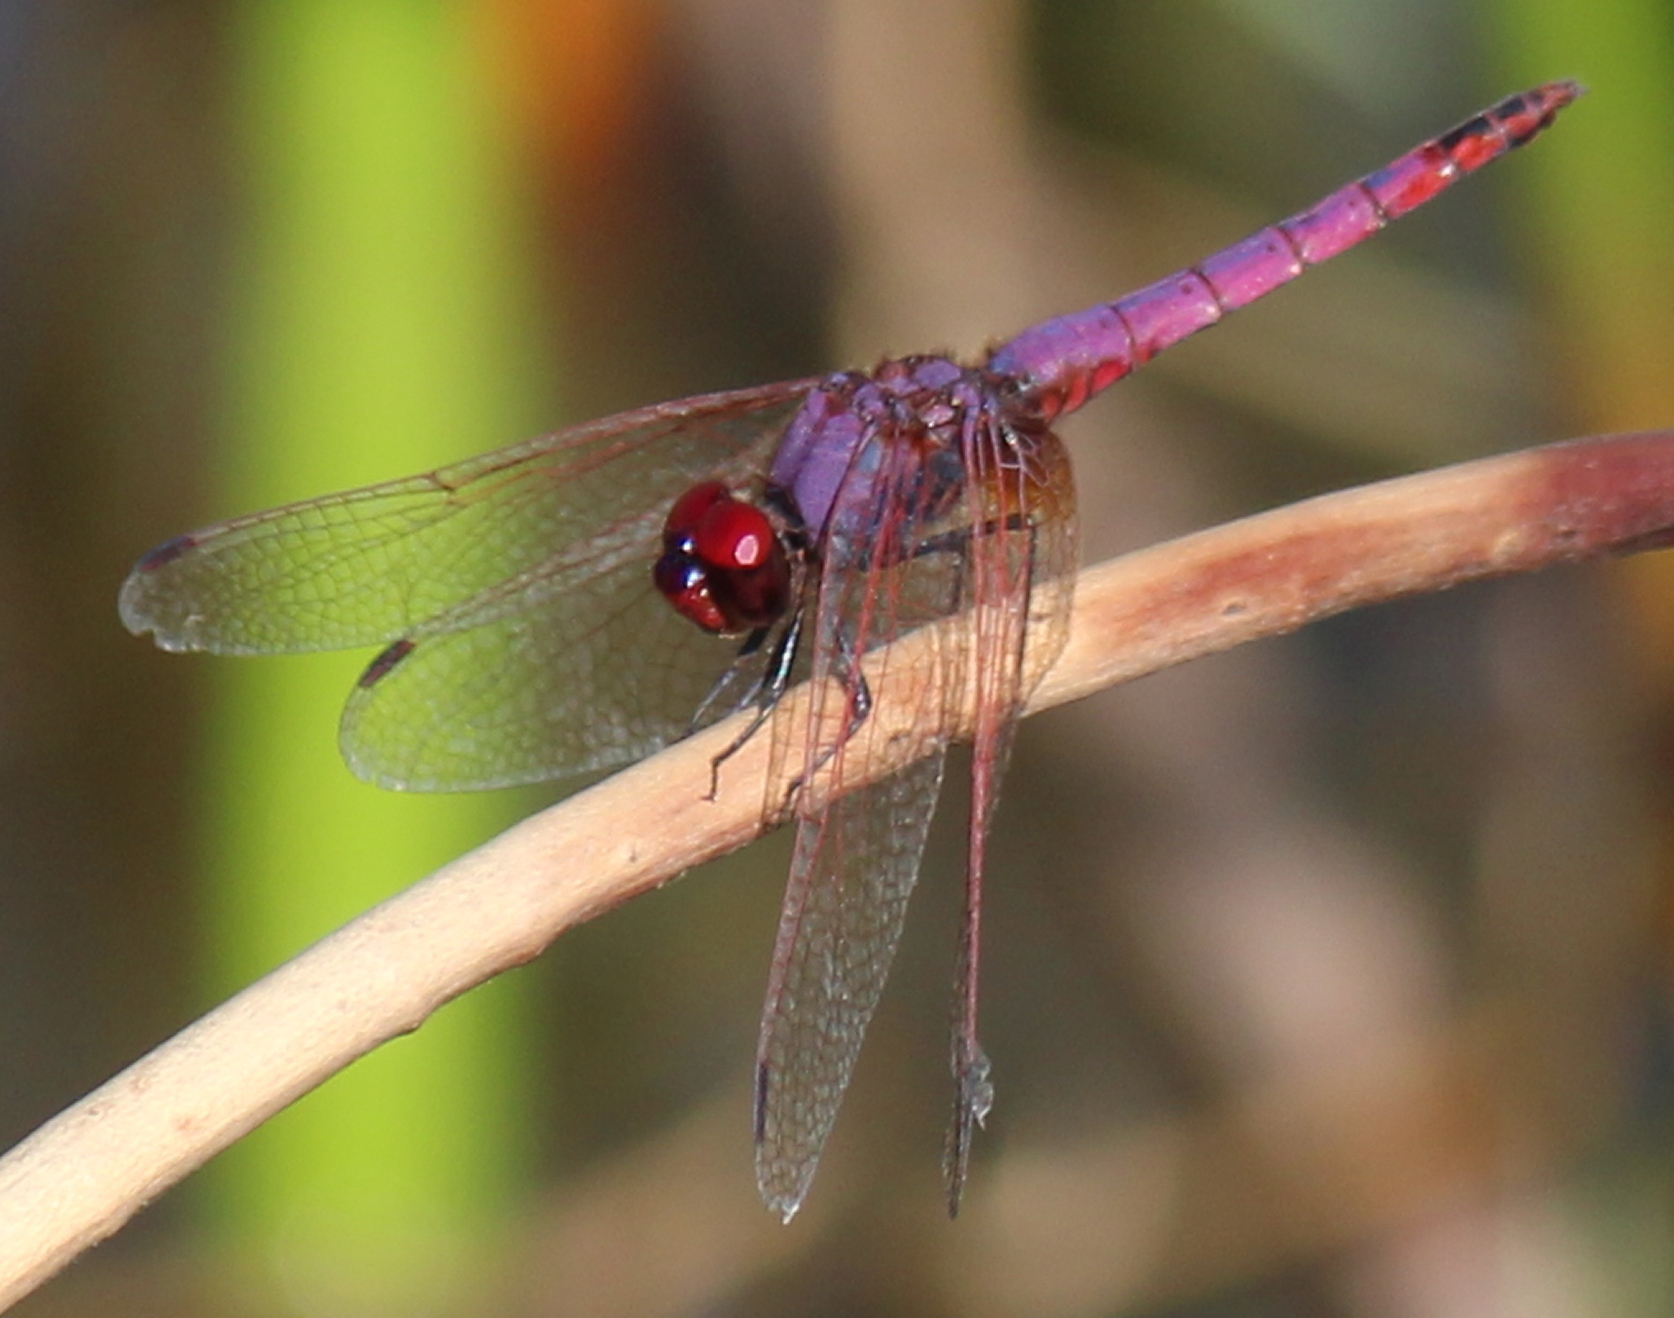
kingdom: Animalia
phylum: Arthropoda
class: Insecta
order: Odonata
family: Libellulidae
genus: Trithemis
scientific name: Trithemis annulata
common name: Violet dropwing
